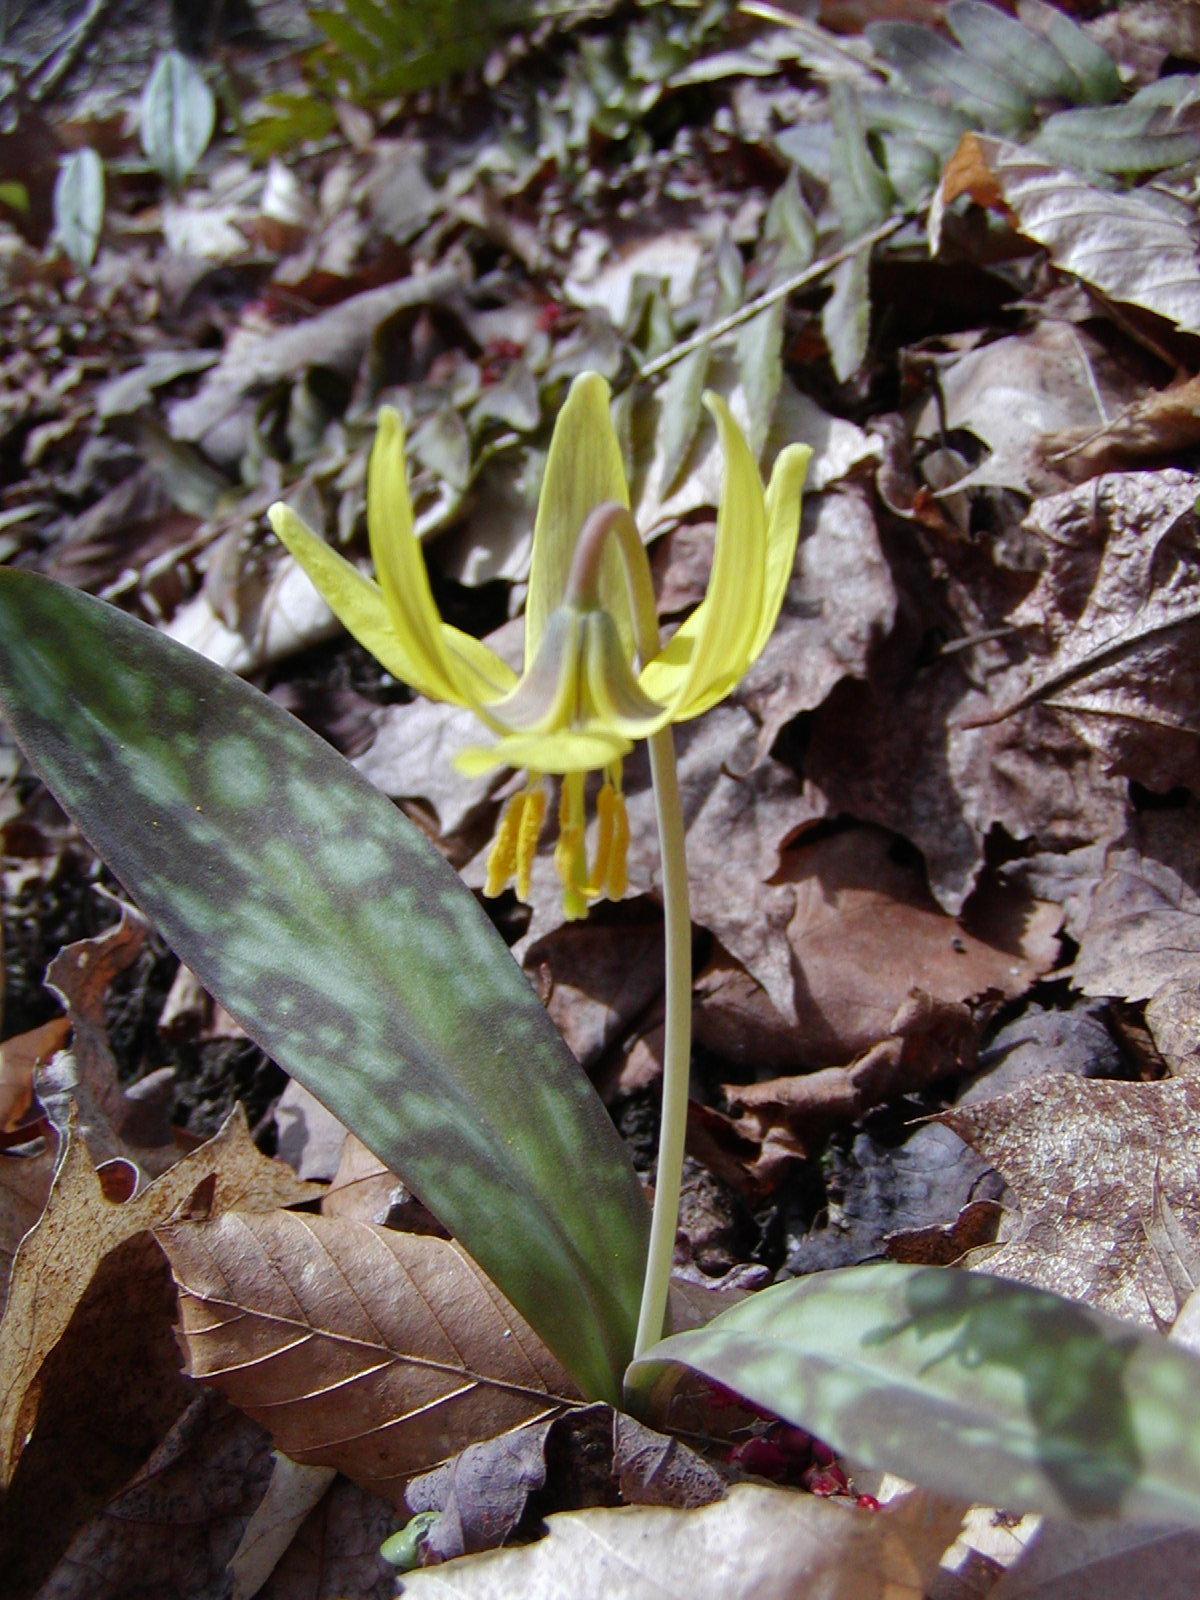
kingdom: Plantae
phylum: Tracheophyta
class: Liliopsida
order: Liliales
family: Liliaceae
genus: Erythronium
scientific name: Erythronium americanum
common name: Yellow adder's-tongue
